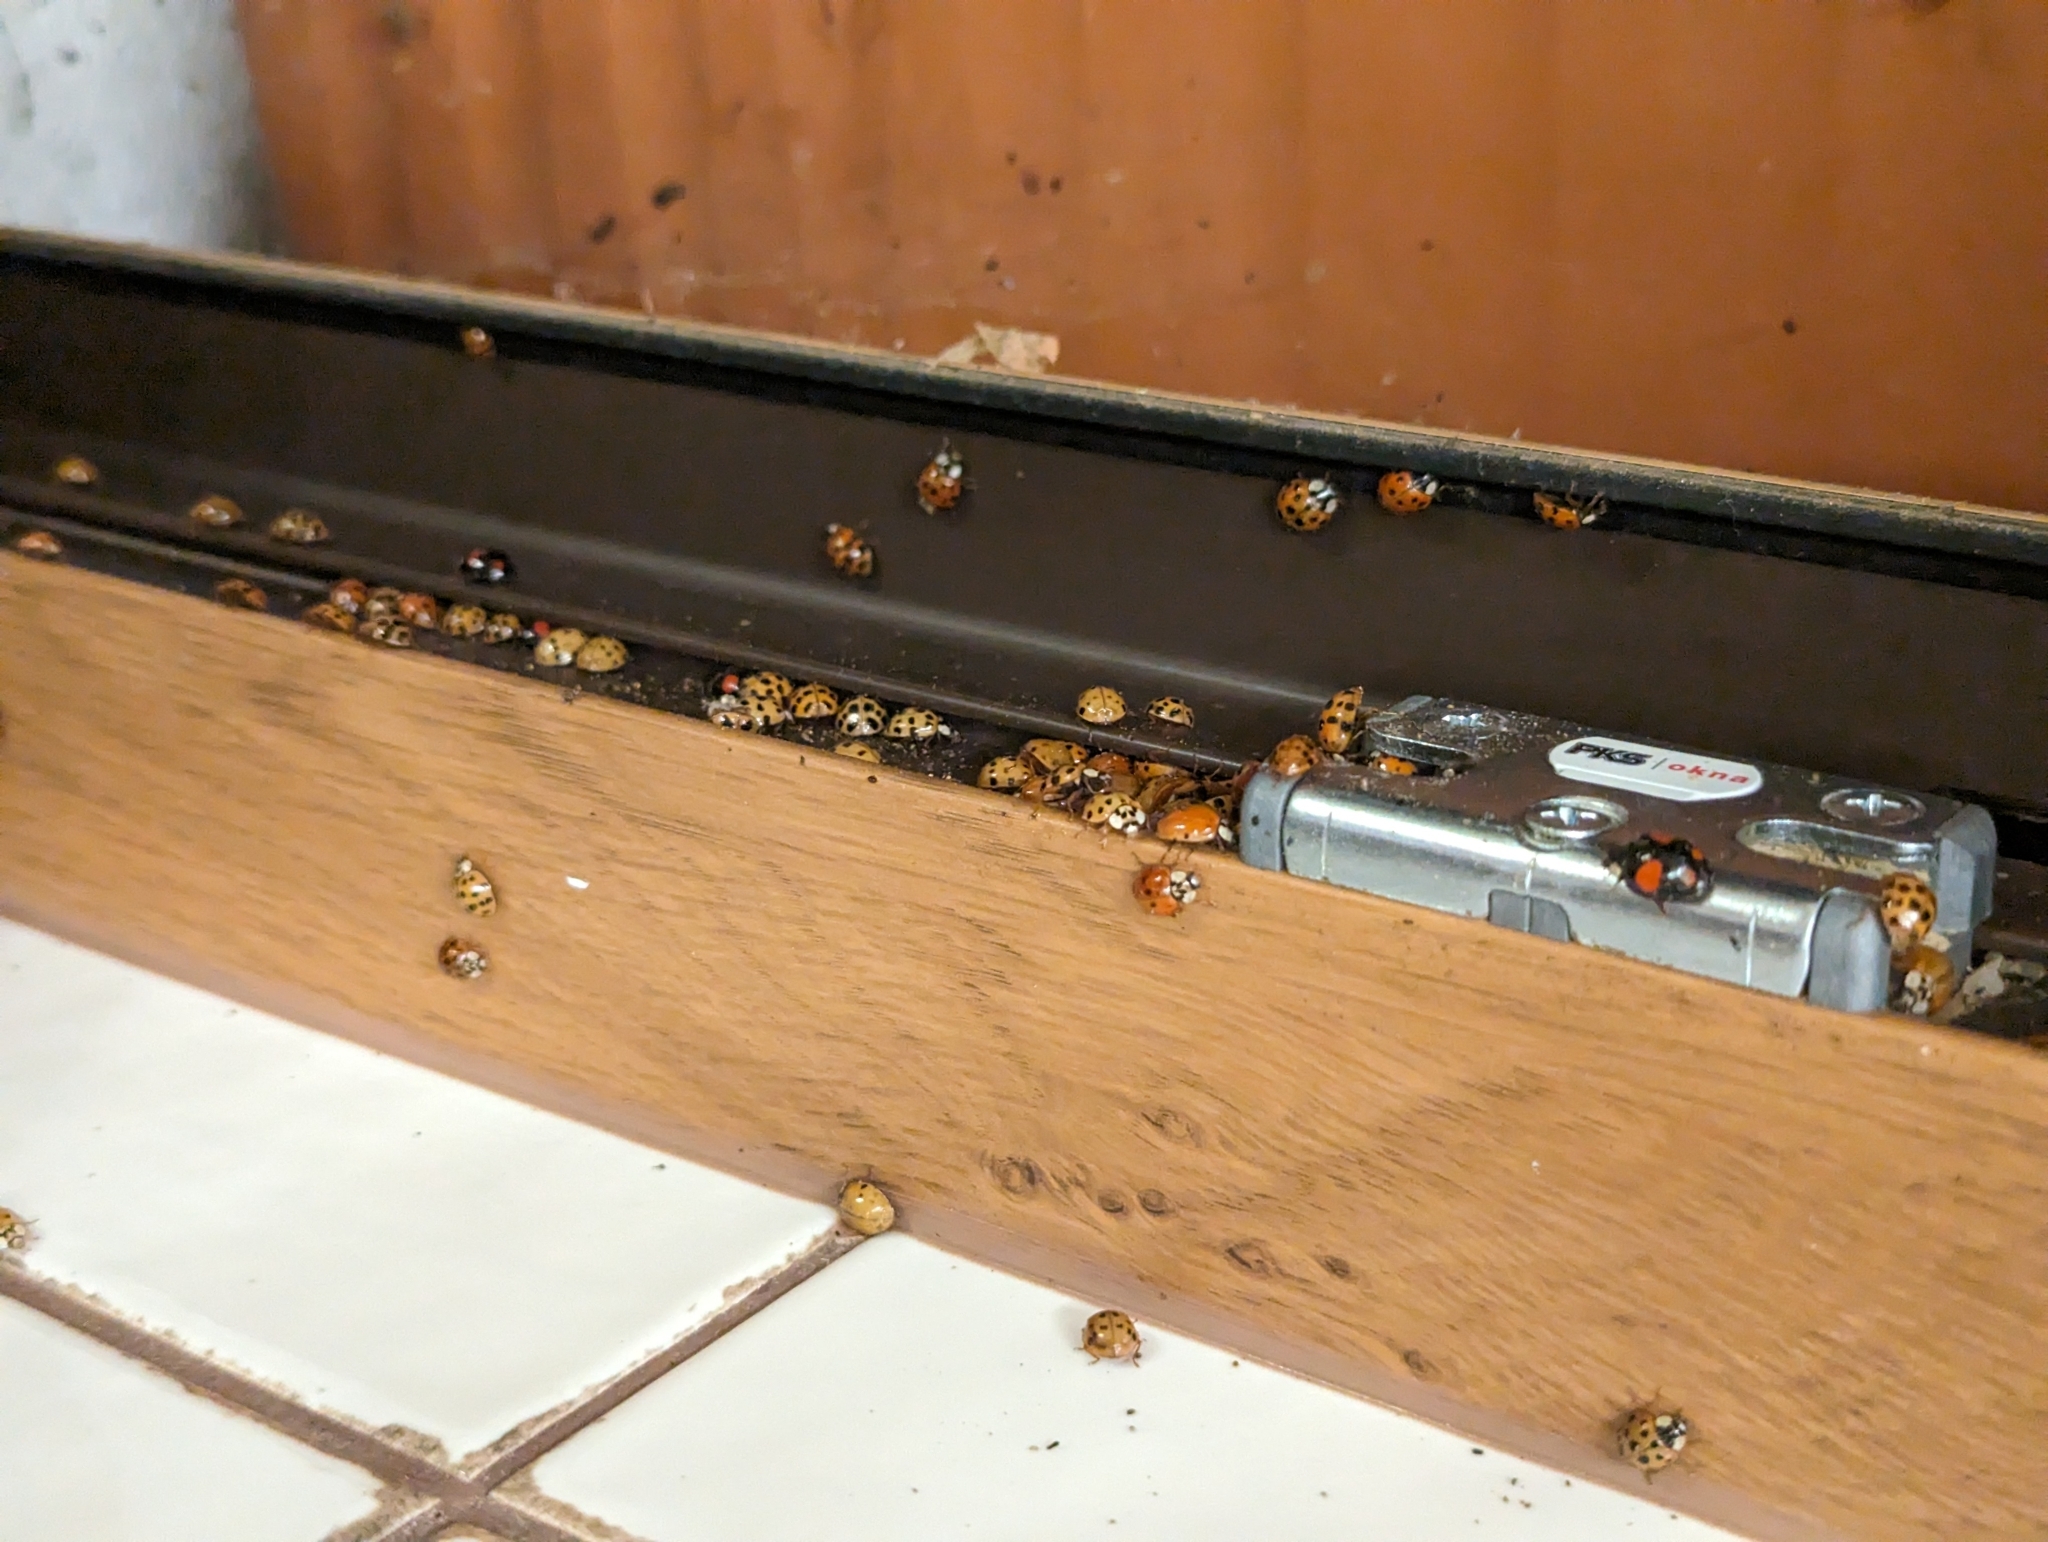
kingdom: Animalia
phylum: Arthropoda
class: Insecta
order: Coleoptera
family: Coccinellidae
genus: Harmonia
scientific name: Harmonia axyridis
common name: Harlequin ladybird
